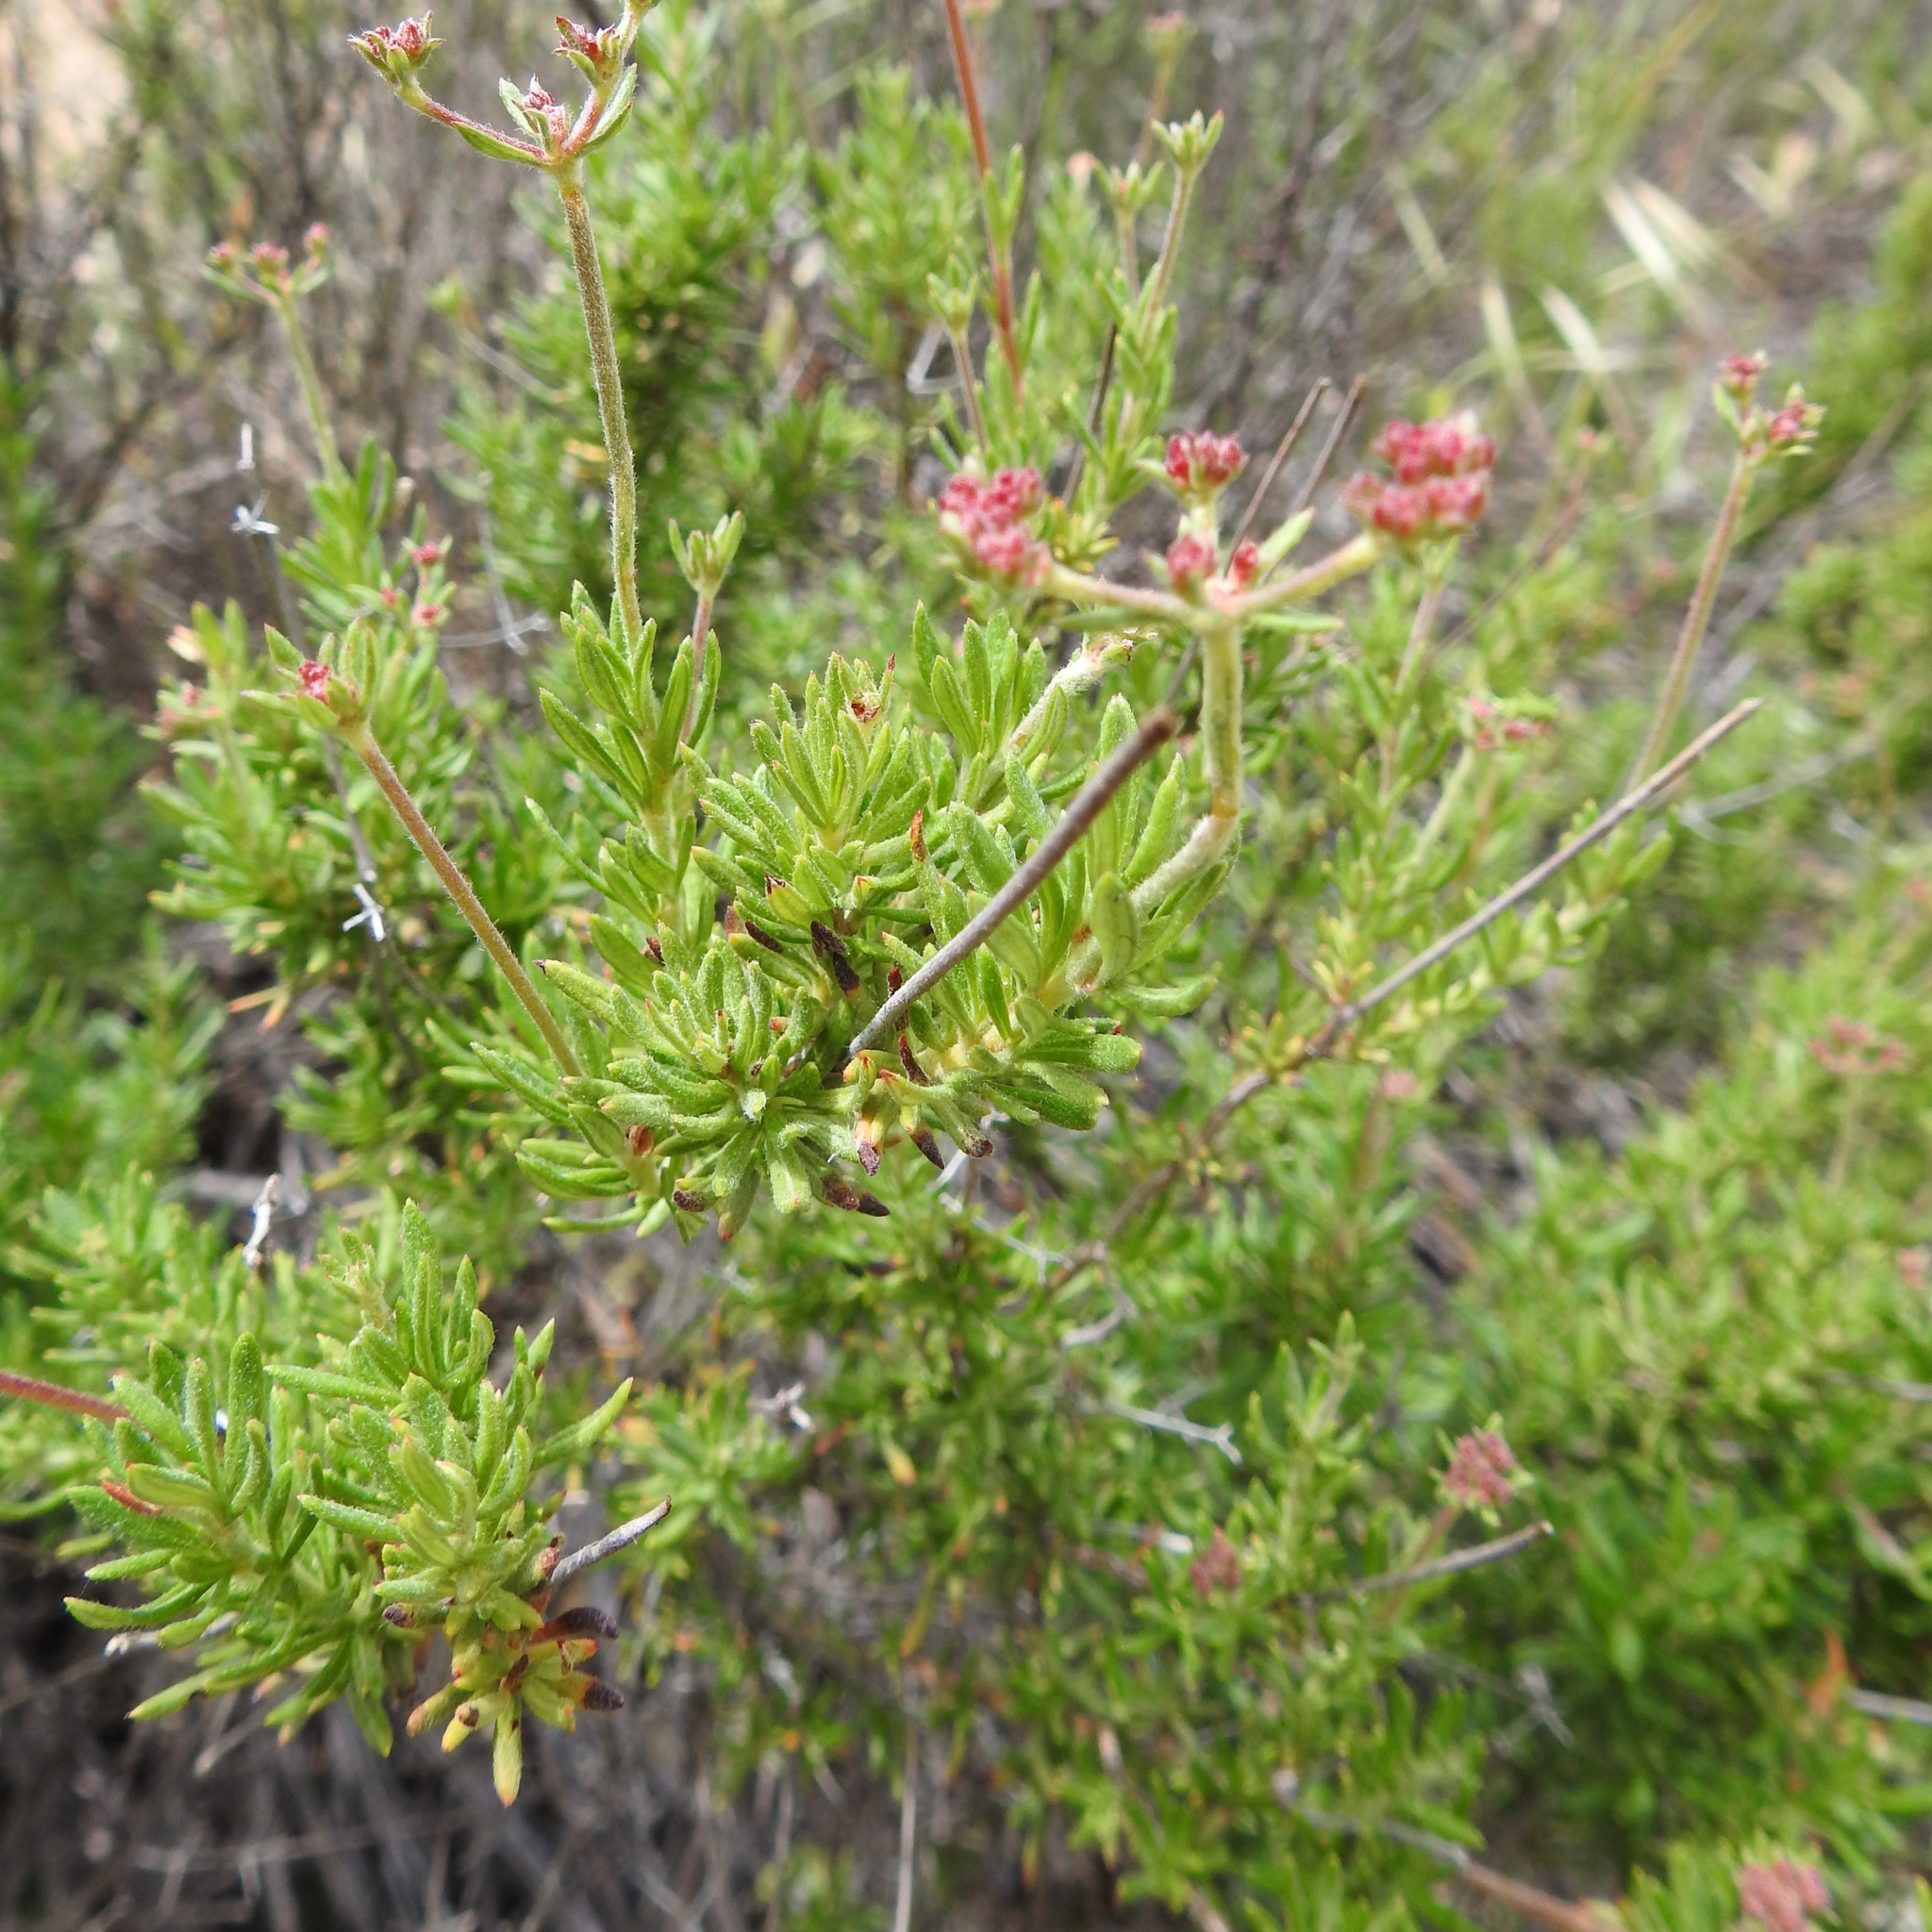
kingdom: Plantae
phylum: Tracheophyta
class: Magnoliopsida
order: Caryophyllales
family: Polygonaceae
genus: Eriogonum
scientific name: Eriogonum fasciculatum
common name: California wild buckwheat
